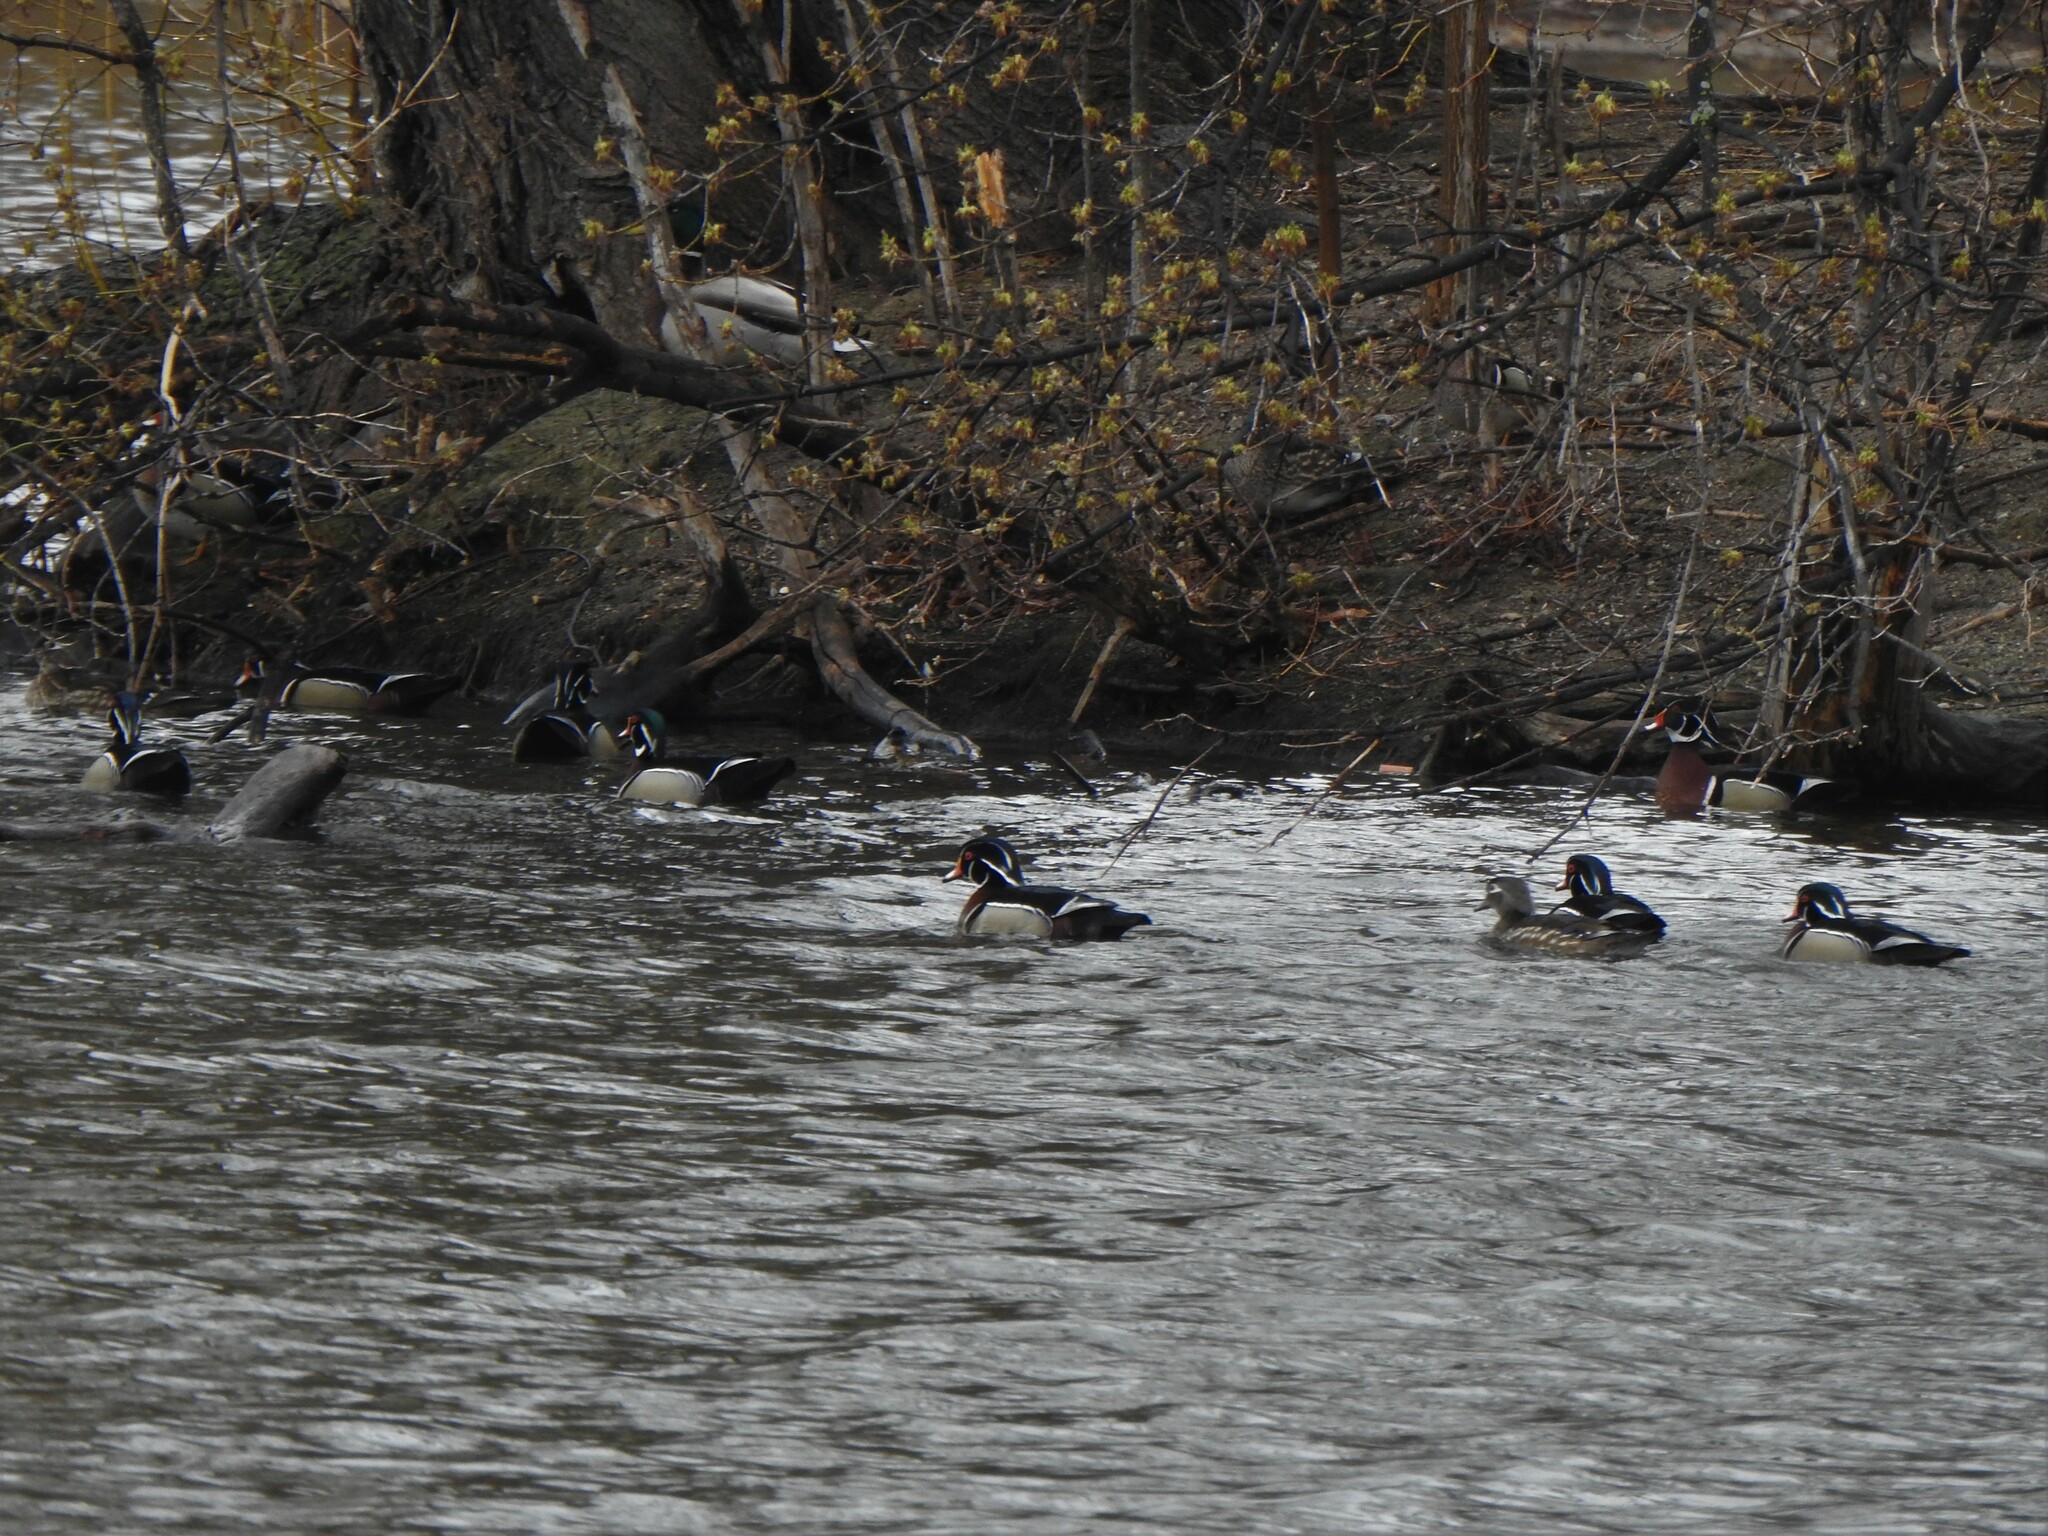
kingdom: Animalia
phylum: Chordata
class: Aves
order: Anseriformes
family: Anatidae
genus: Aix
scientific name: Aix sponsa
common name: Wood duck
